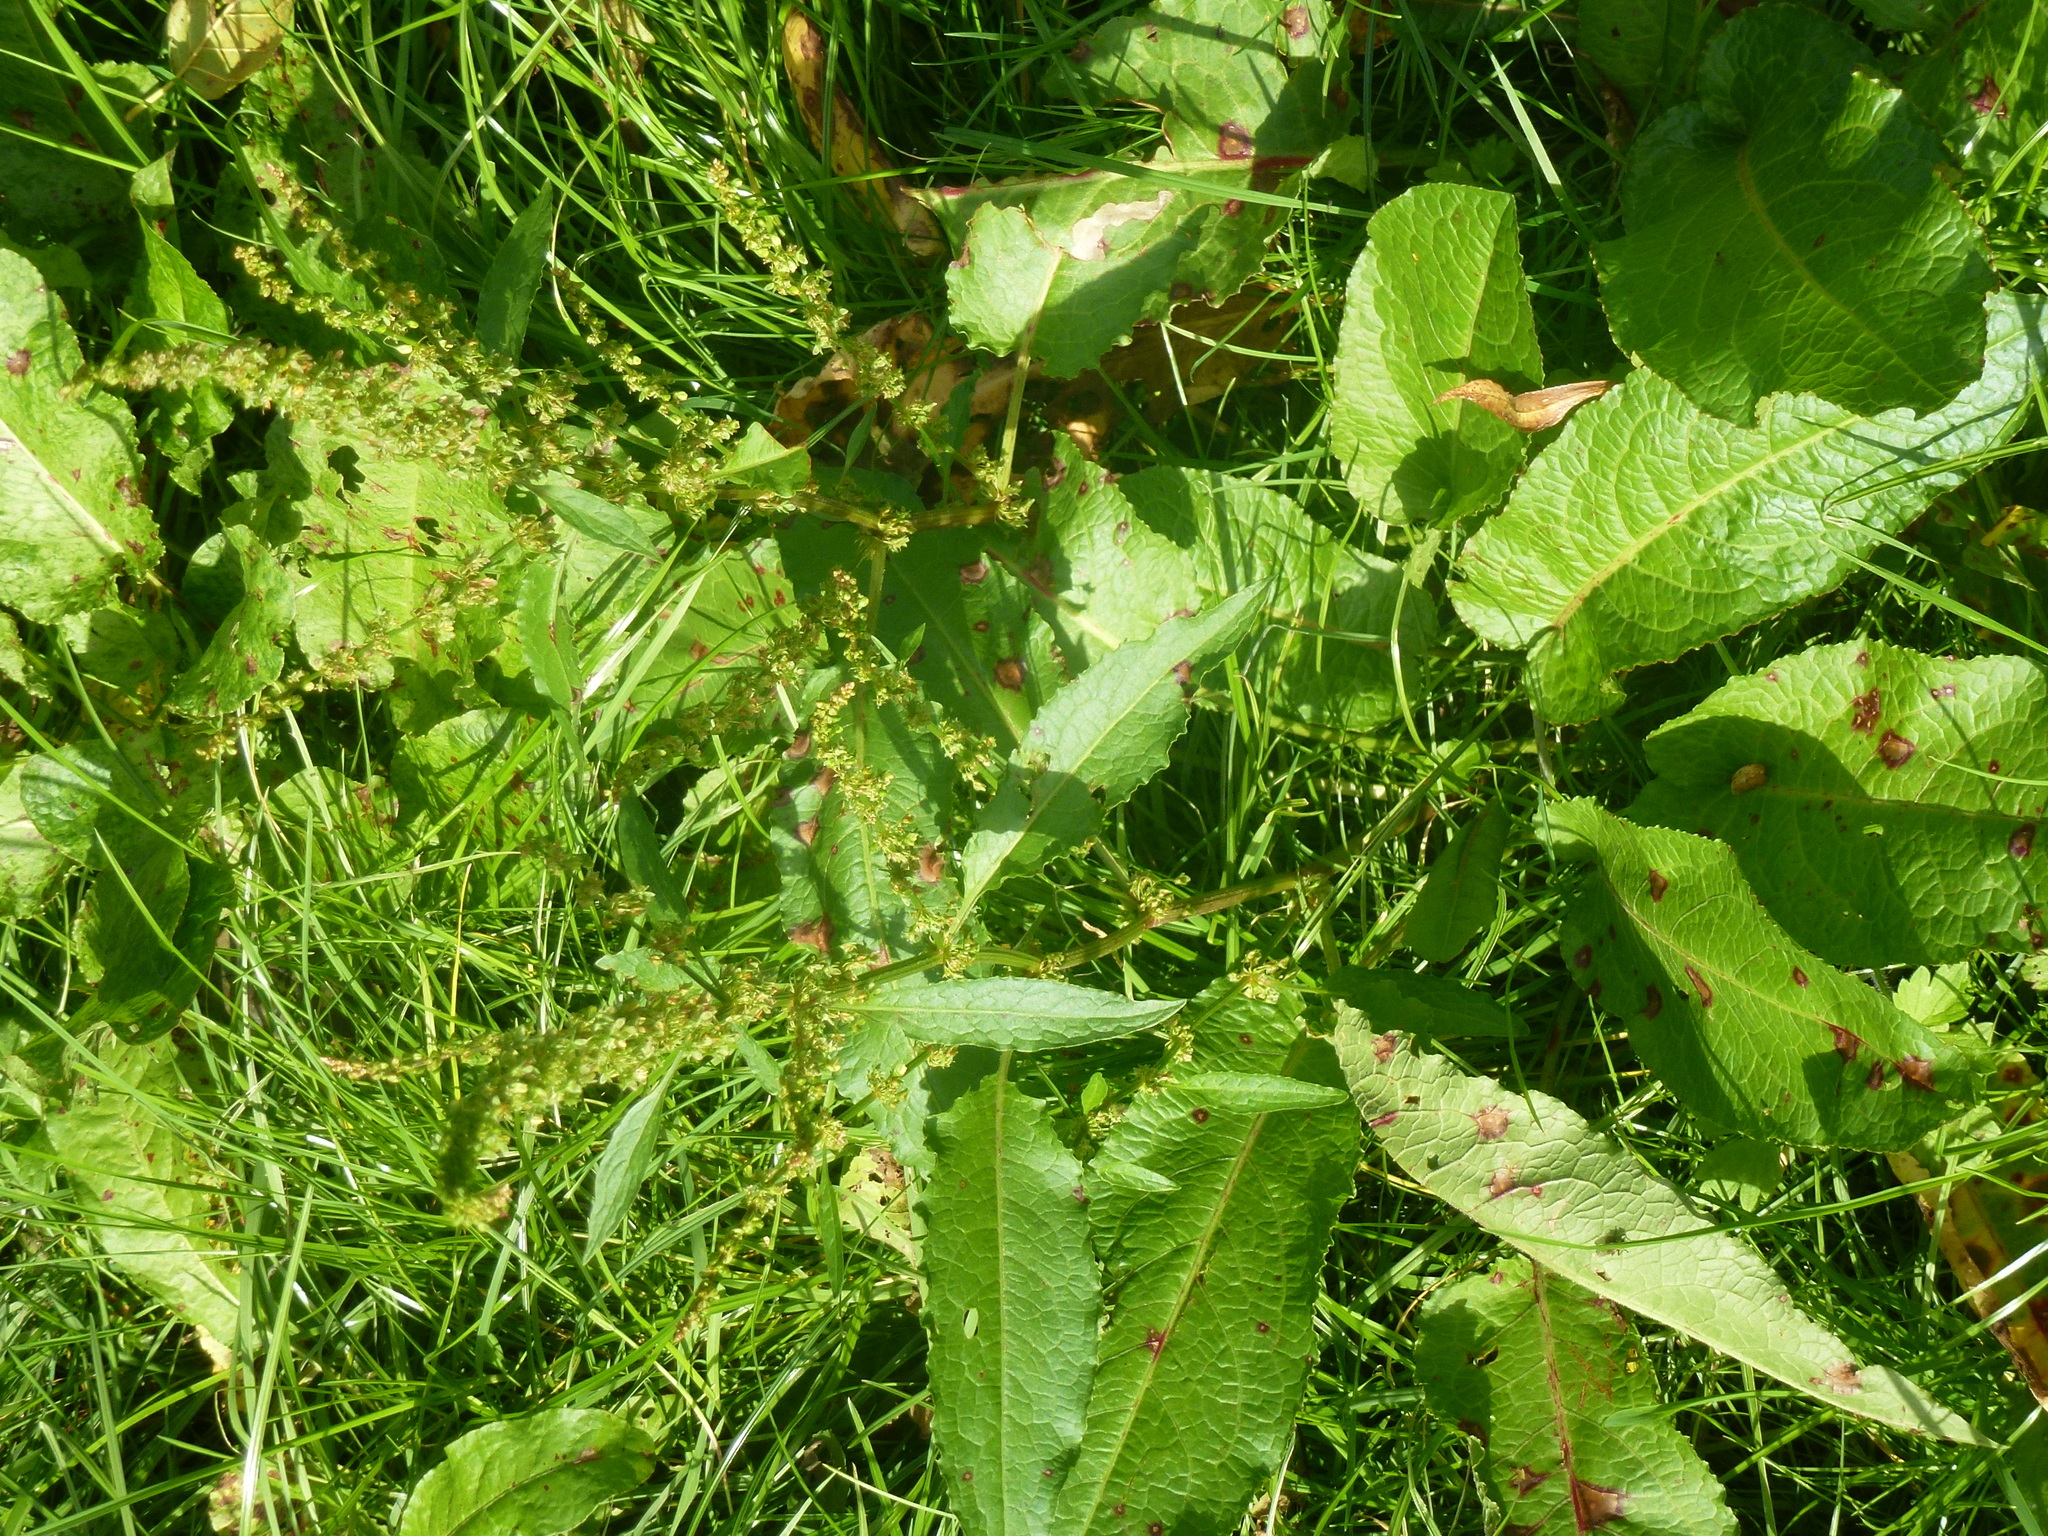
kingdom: Plantae
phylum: Tracheophyta
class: Magnoliopsida
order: Caryophyllales
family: Polygonaceae
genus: Rumex
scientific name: Rumex obtusifolius
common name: Bitter dock
